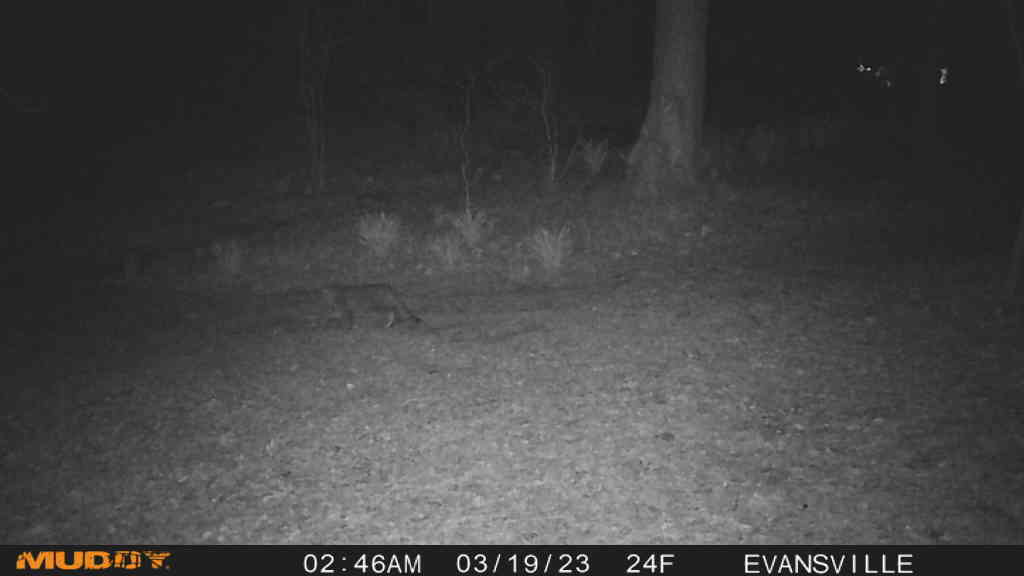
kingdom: Animalia
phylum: Chordata
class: Mammalia
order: Carnivora
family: Felidae
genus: Felis
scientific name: Felis catus
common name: Domestic cat
